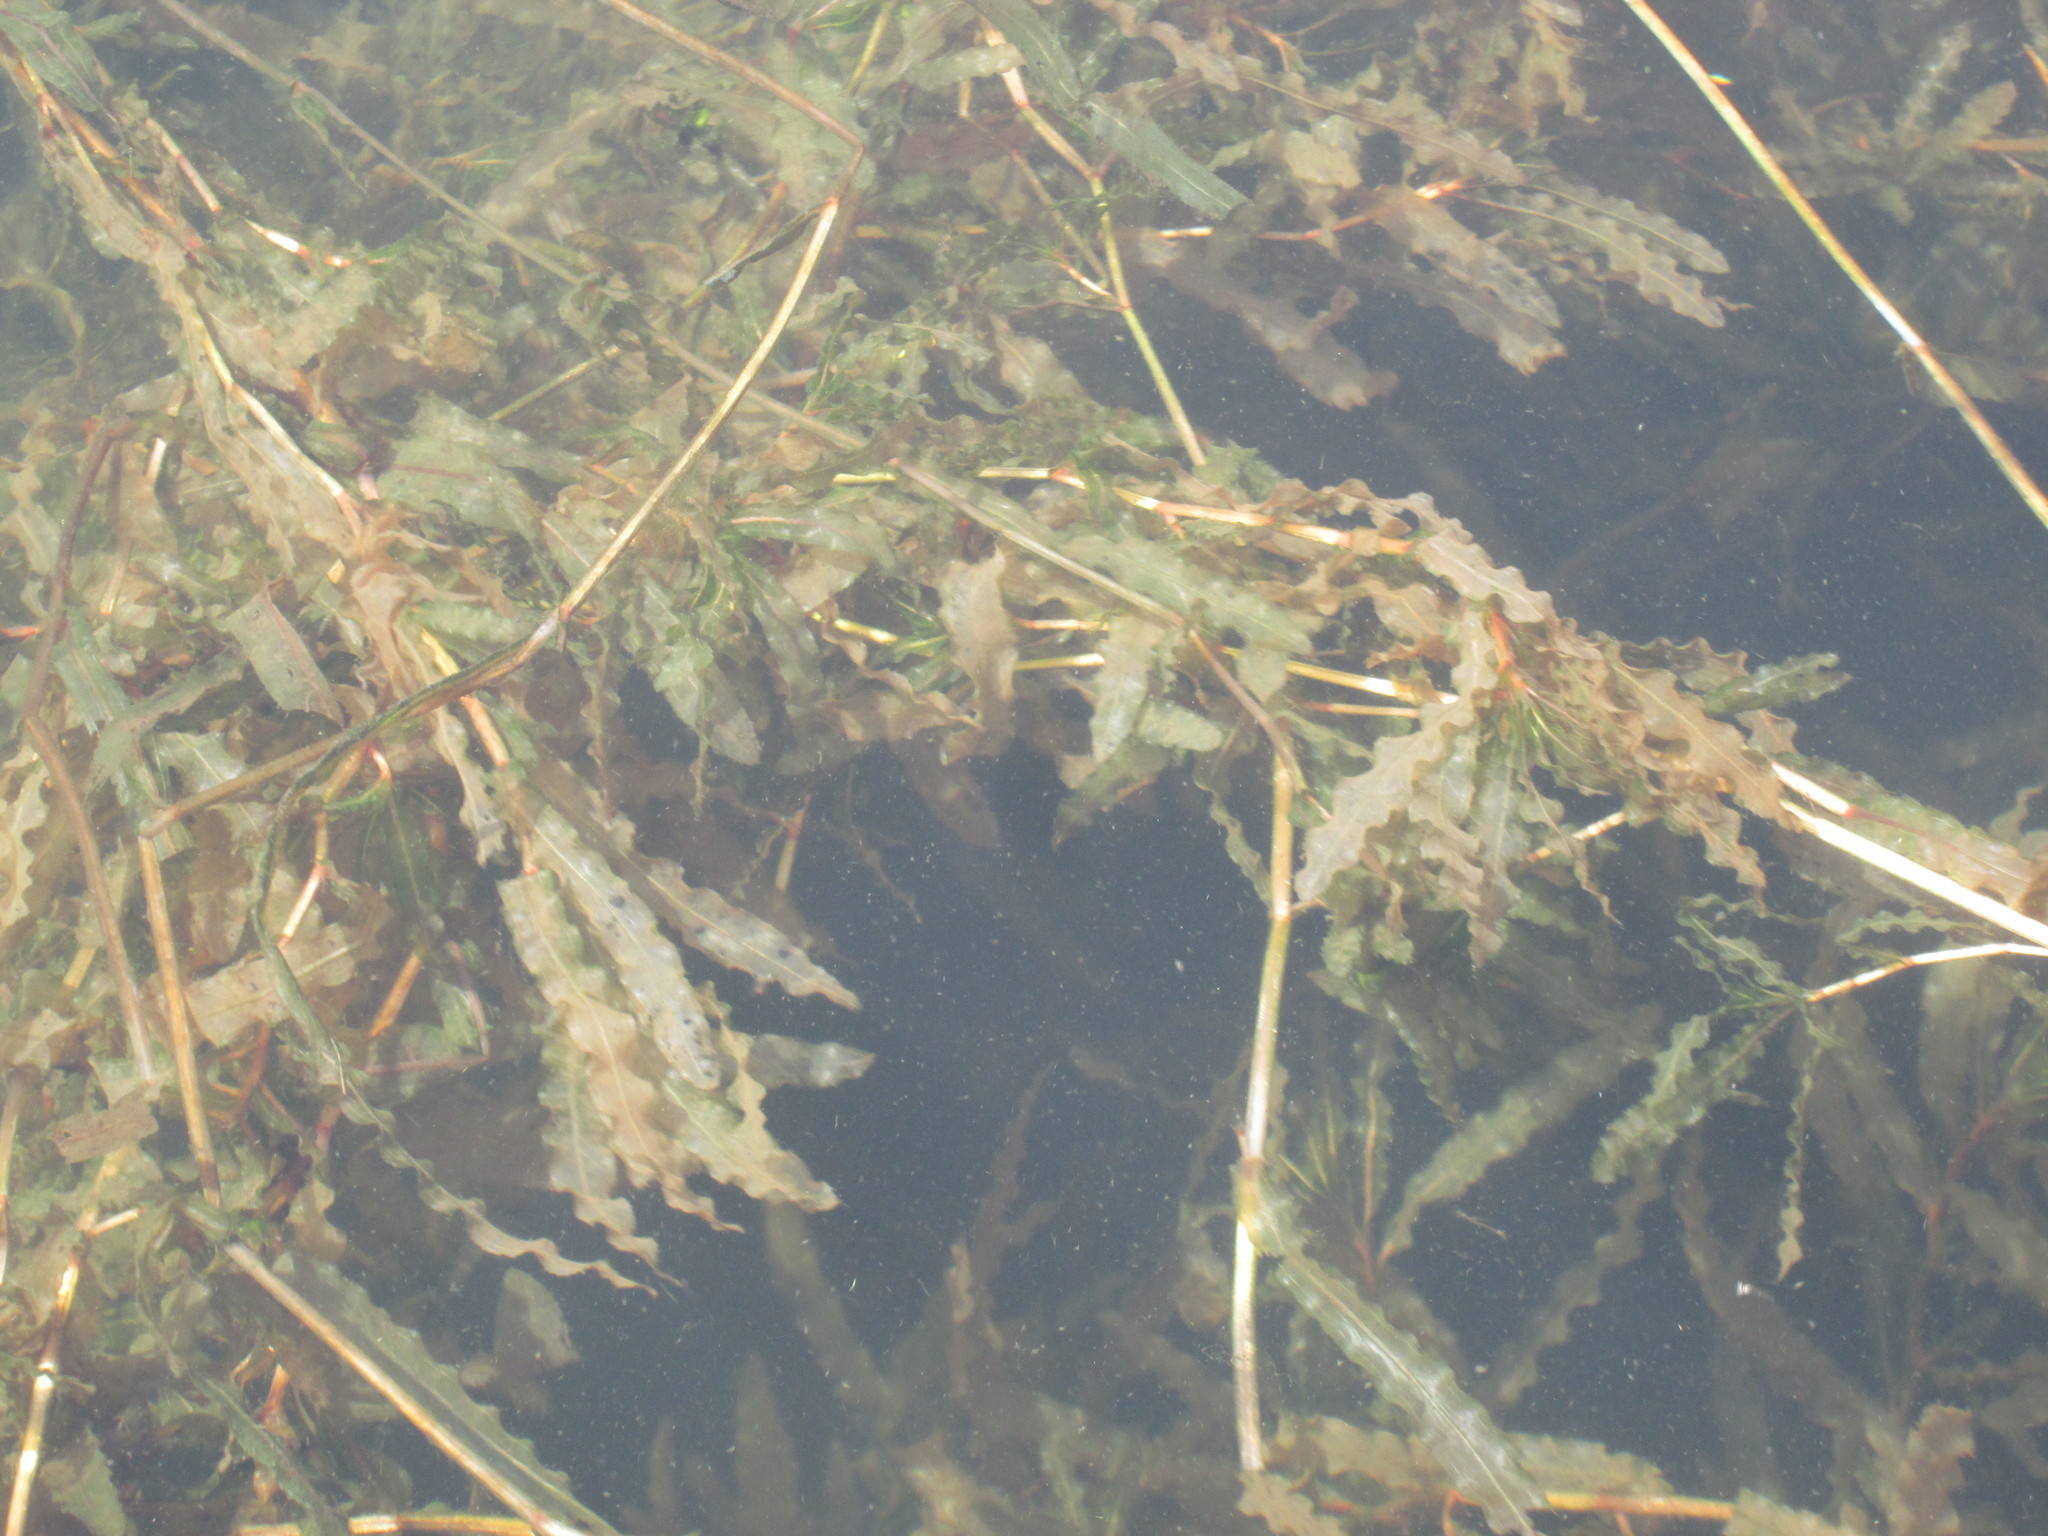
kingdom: Plantae
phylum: Tracheophyta
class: Liliopsida
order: Alismatales
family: Potamogetonaceae
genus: Potamogeton
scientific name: Potamogeton crispus
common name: Curled pondweed
